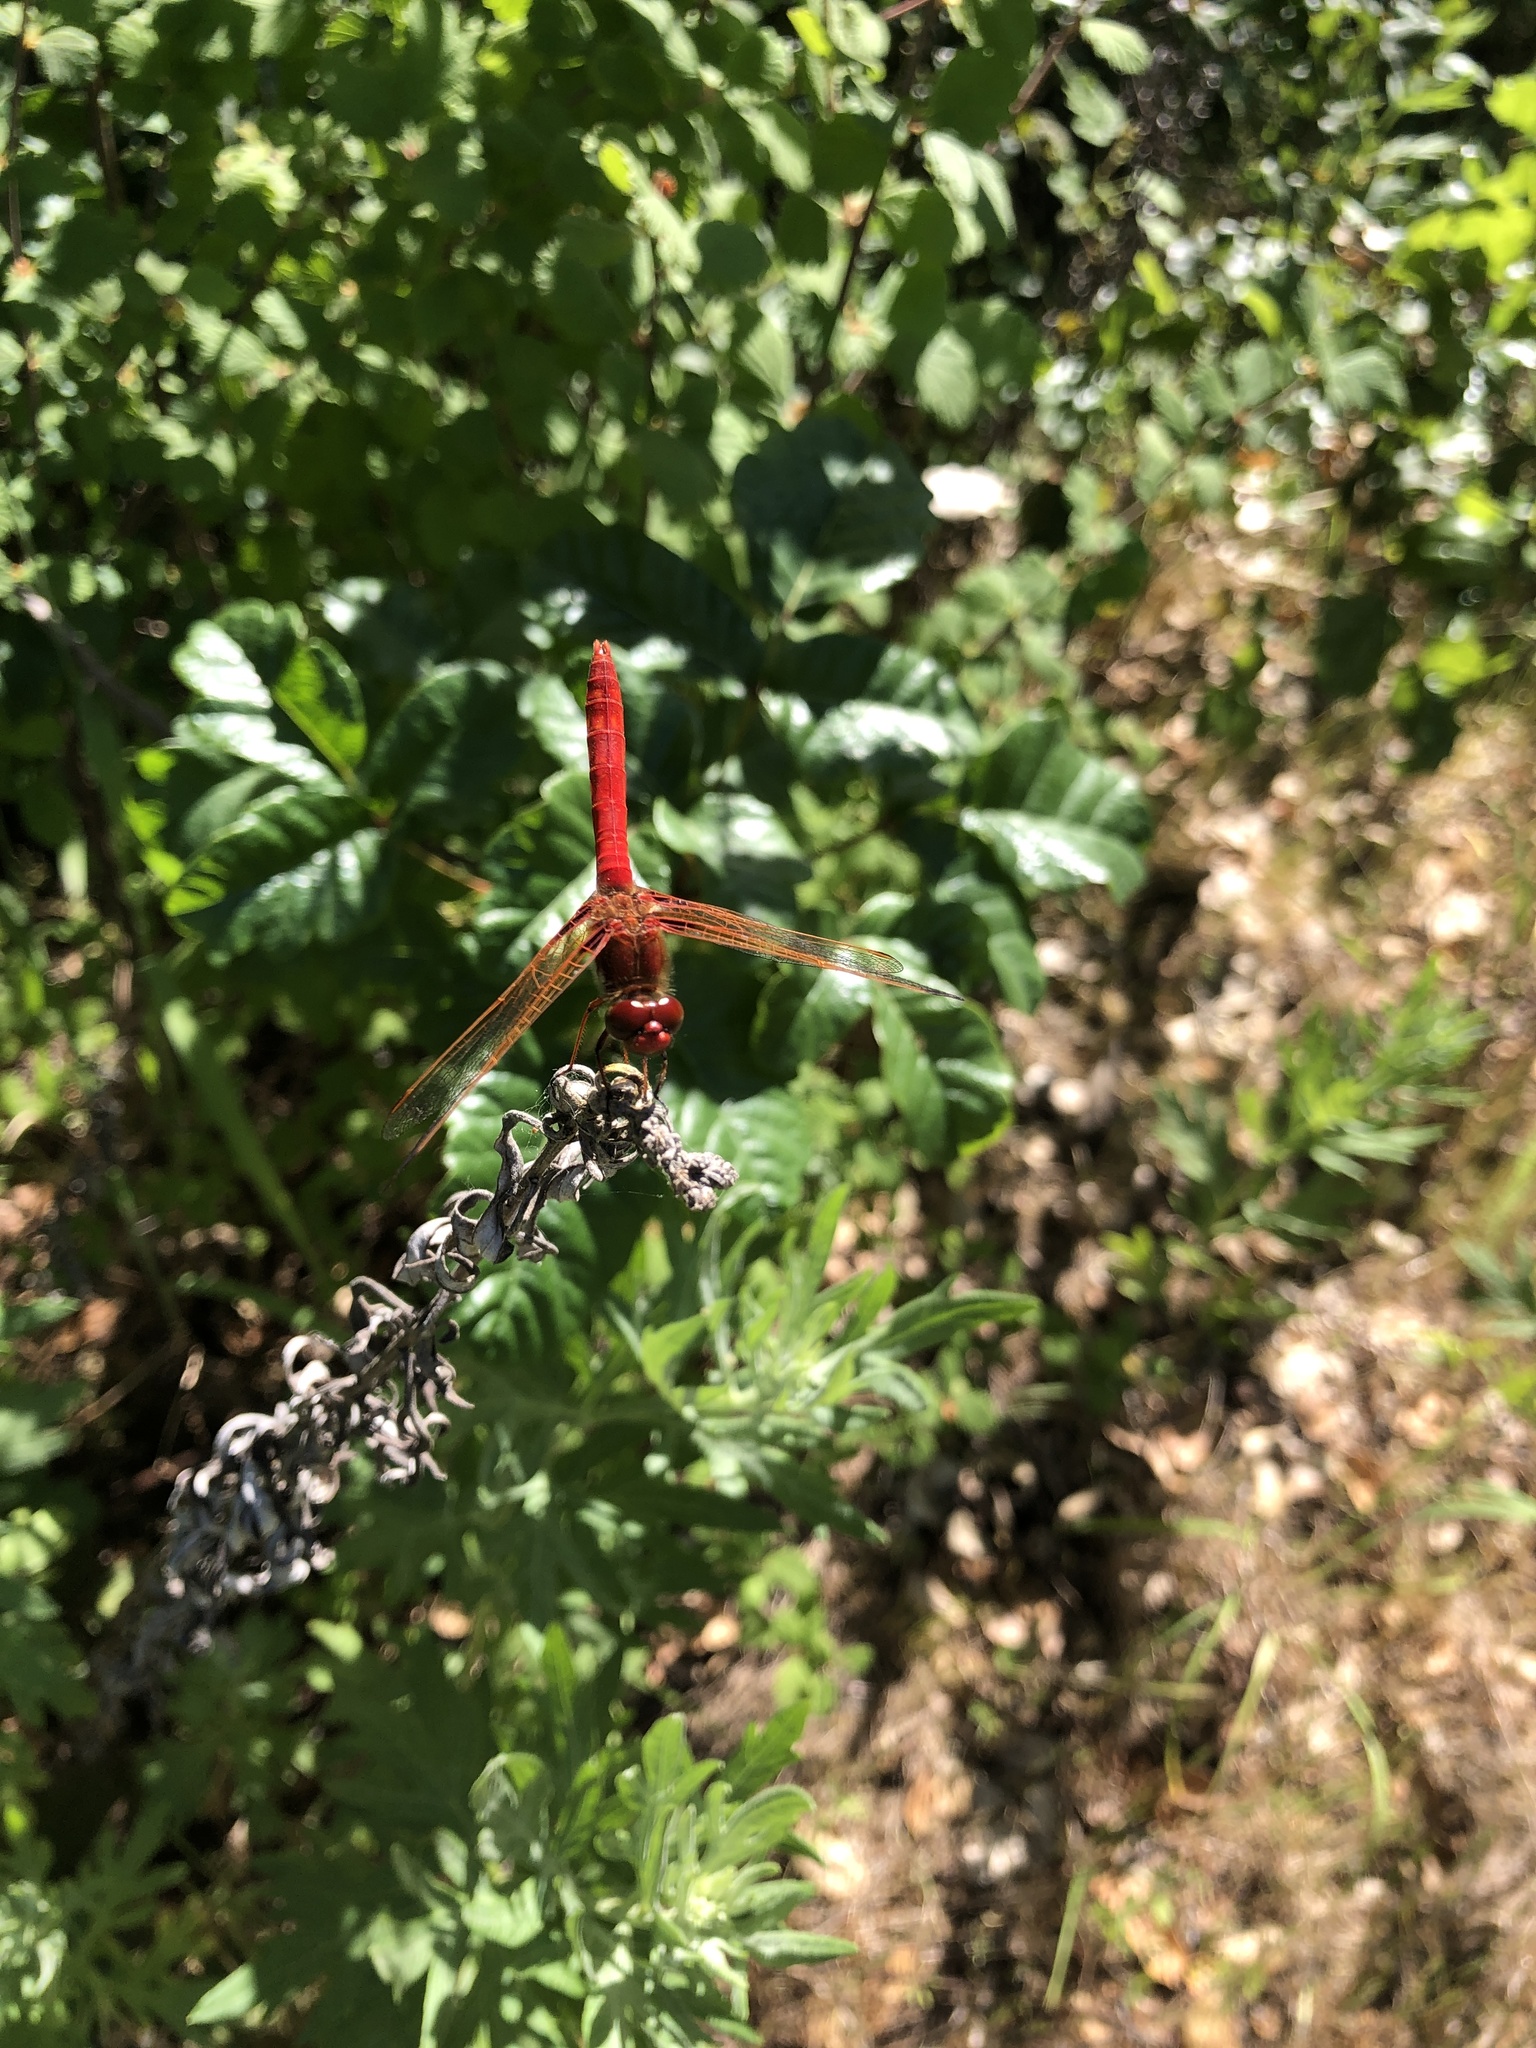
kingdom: Animalia
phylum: Arthropoda
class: Insecta
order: Odonata
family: Libellulidae
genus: Sympetrum
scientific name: Sympetrum illotum
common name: Cardinal meadowhawk
